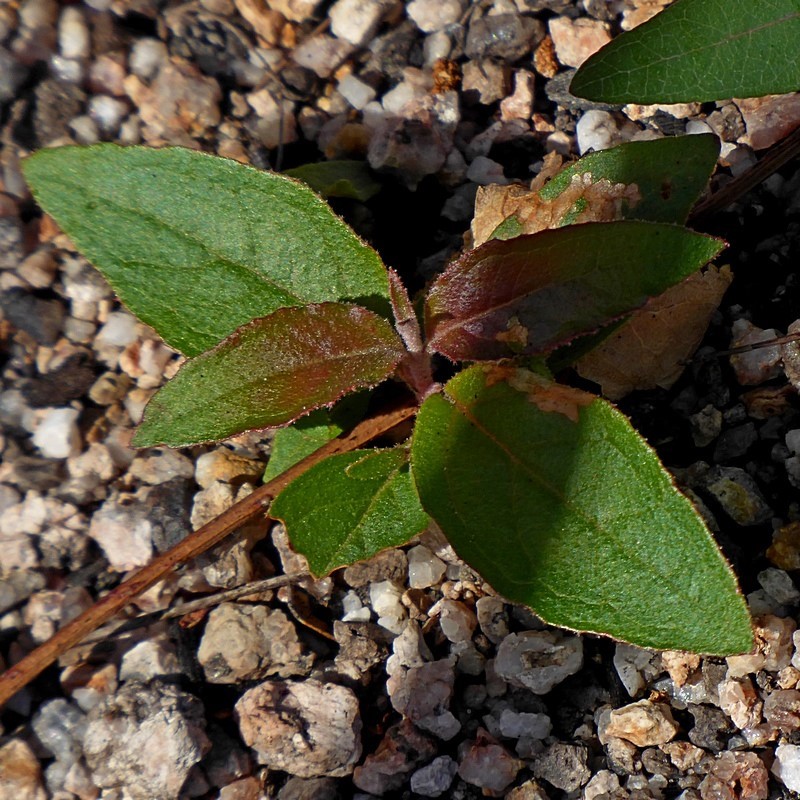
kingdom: Plantae
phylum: Tracheophyta
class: Magnoliopsida
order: Myrtales
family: Myrtaceae
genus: Eucalyptus
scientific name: Eucalyptus globoidea
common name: White-stringybark
